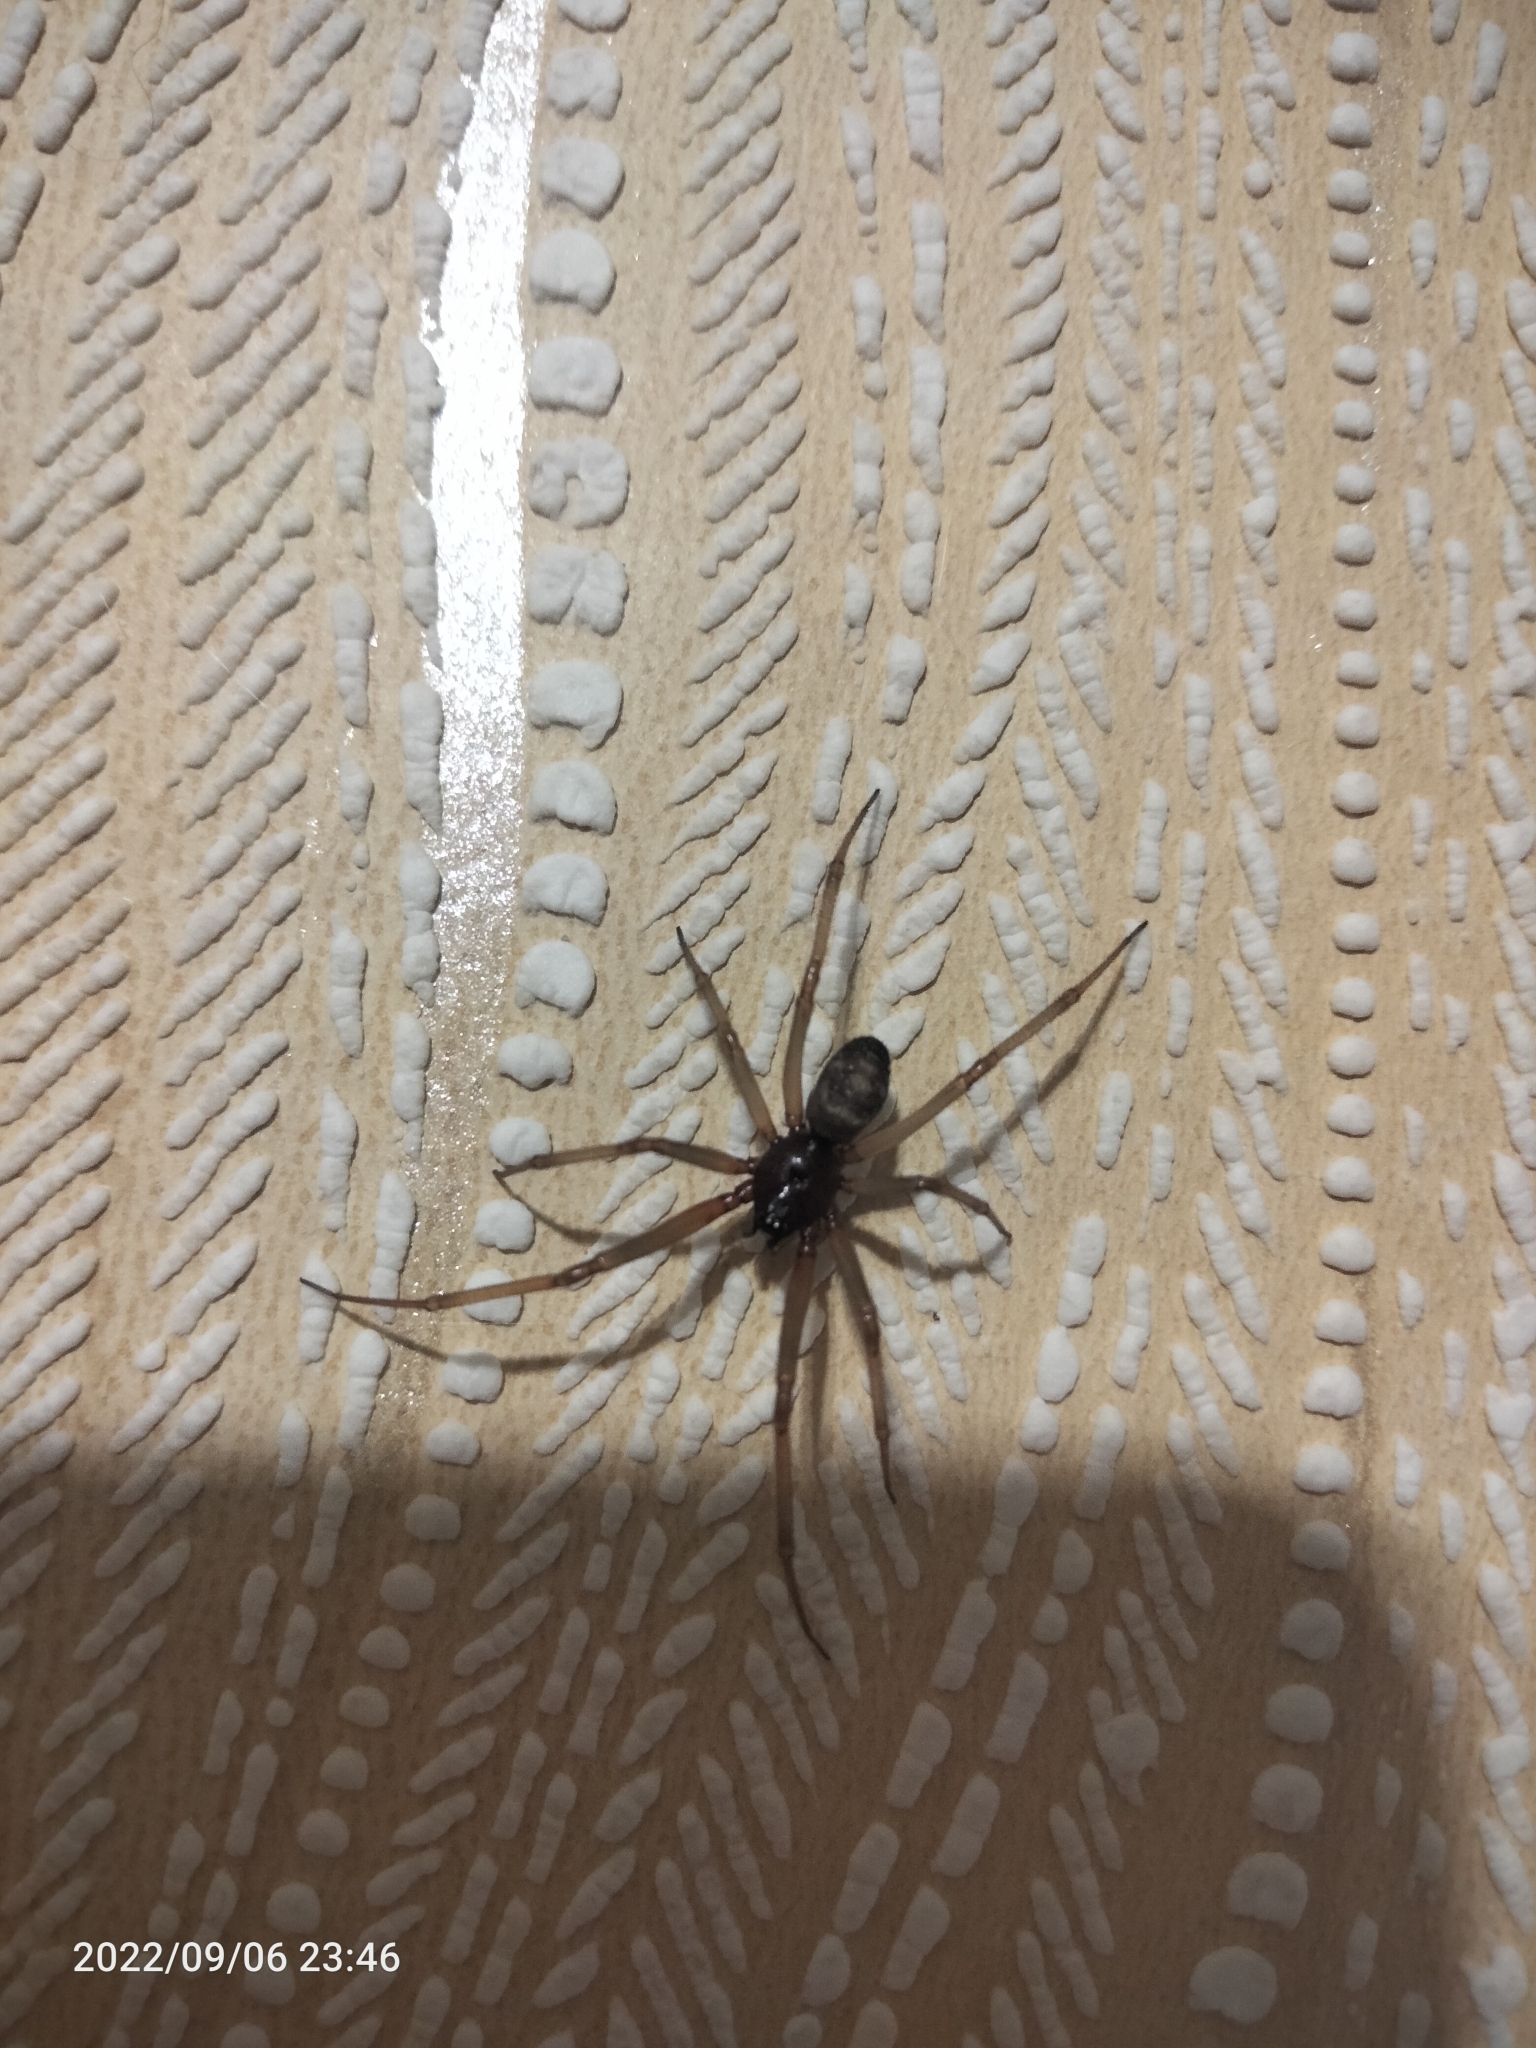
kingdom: Animalia
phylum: Arthropoda
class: Arachnida
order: Araneae
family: Theridiidae
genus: Steatoda
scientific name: Steatoda grossa
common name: False black widow
